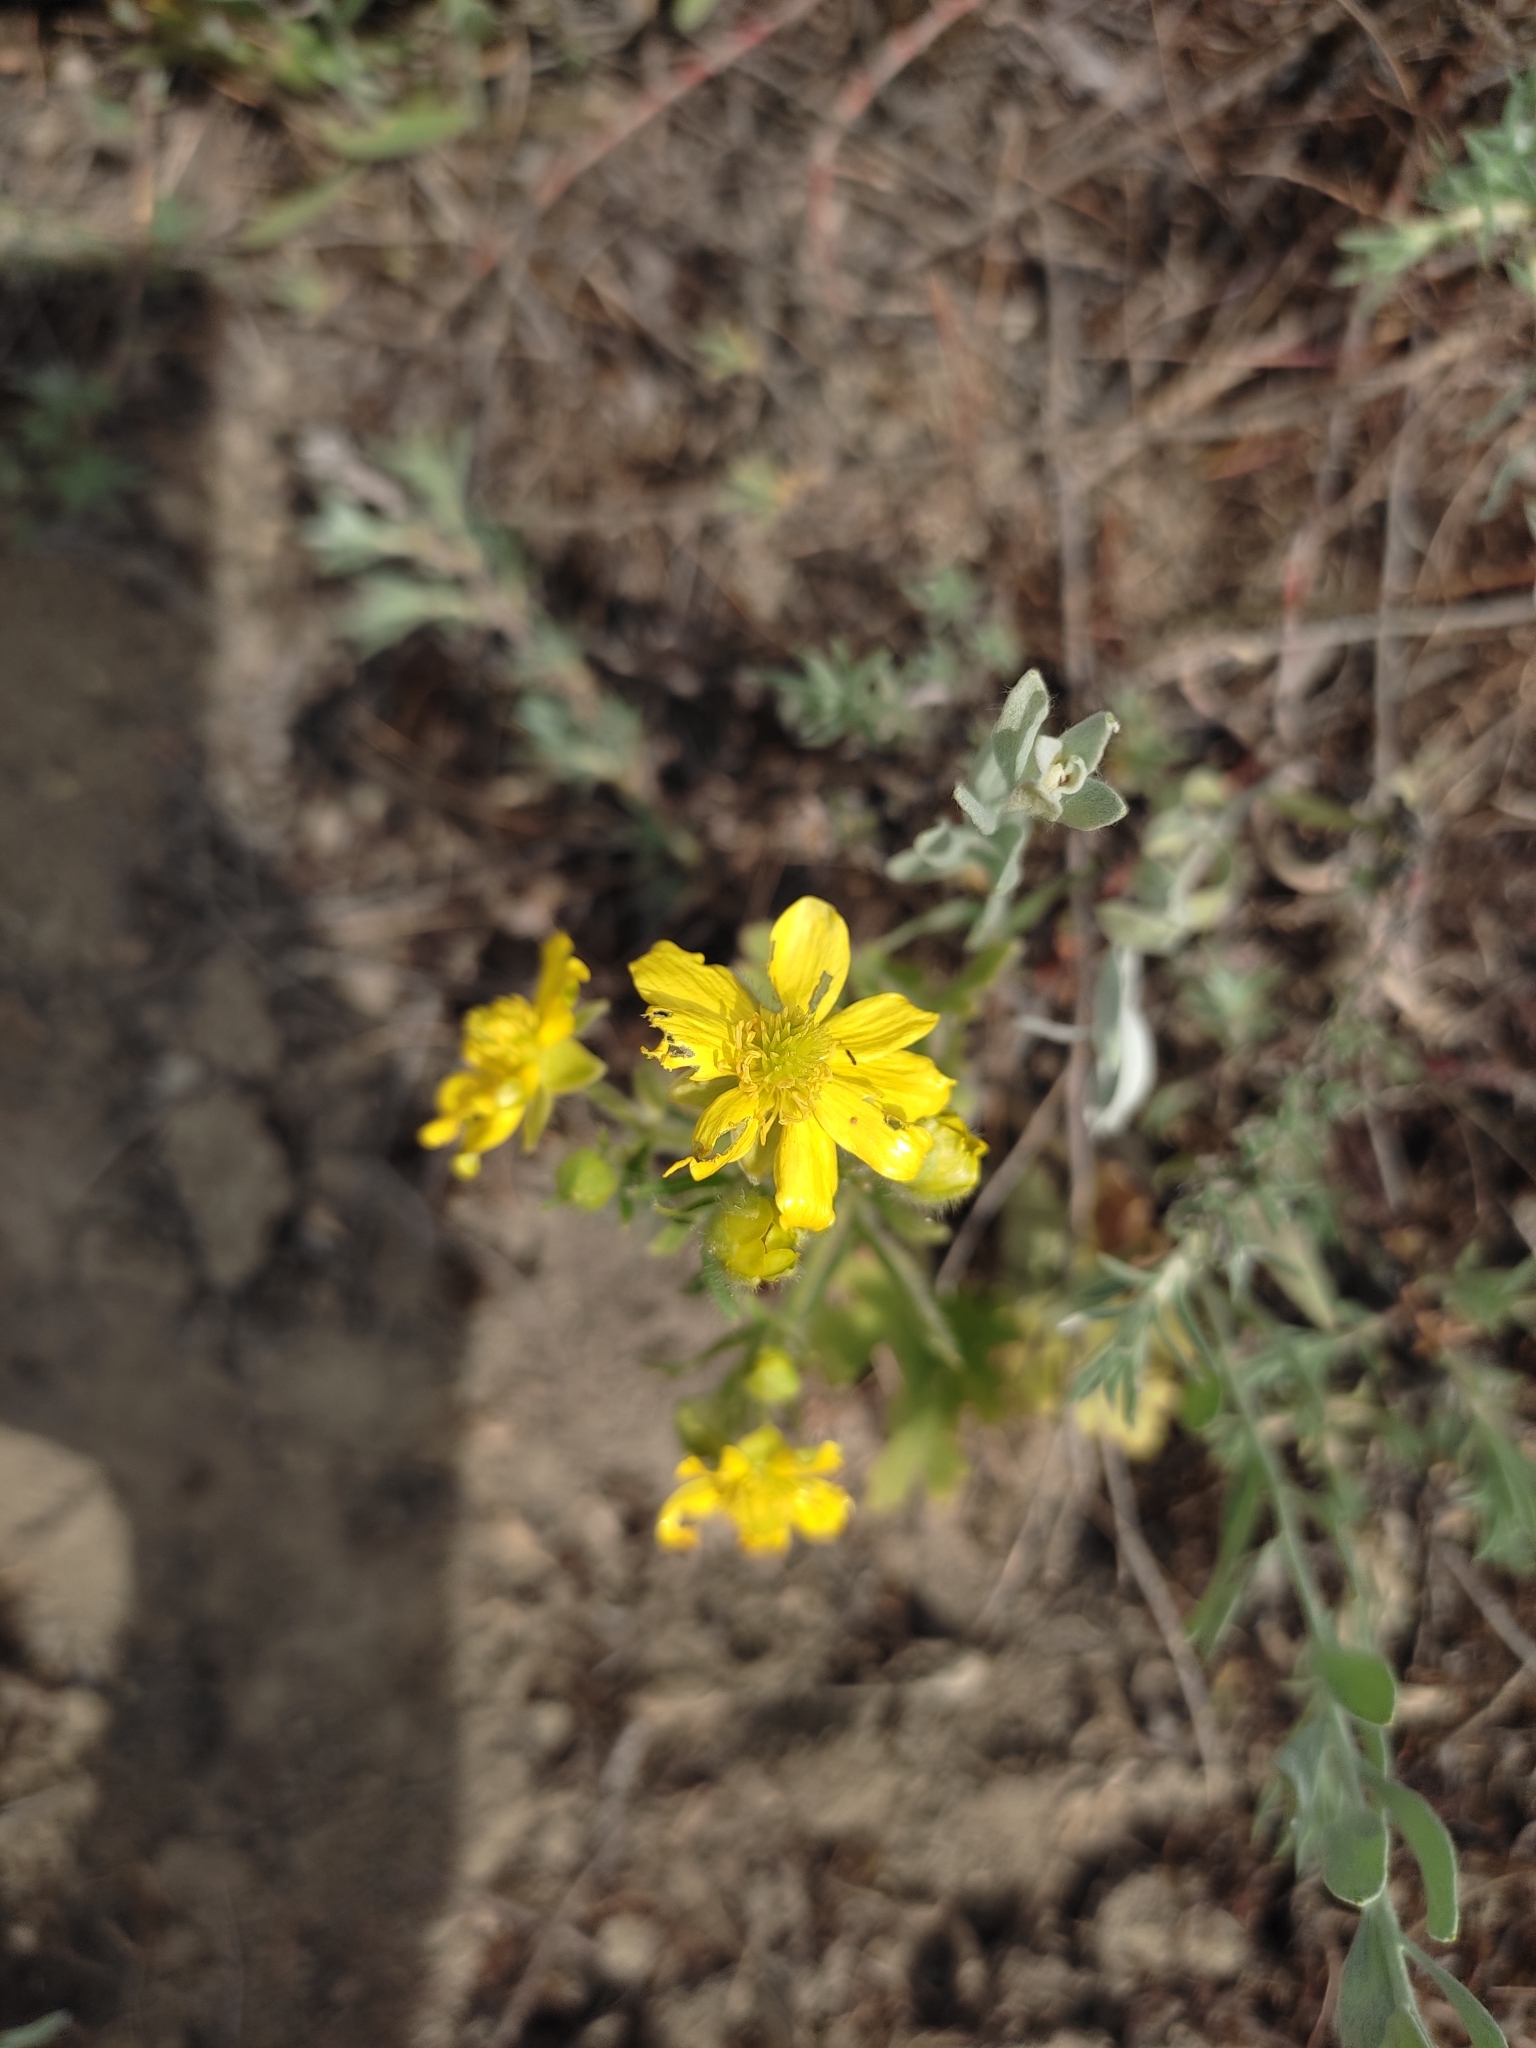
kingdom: Plantae
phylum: Tracheophyta
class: Magnoliopsida
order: Ranunculales
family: Ranunculaceae
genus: Ranunculus
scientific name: Ranunculus oxyspermus
